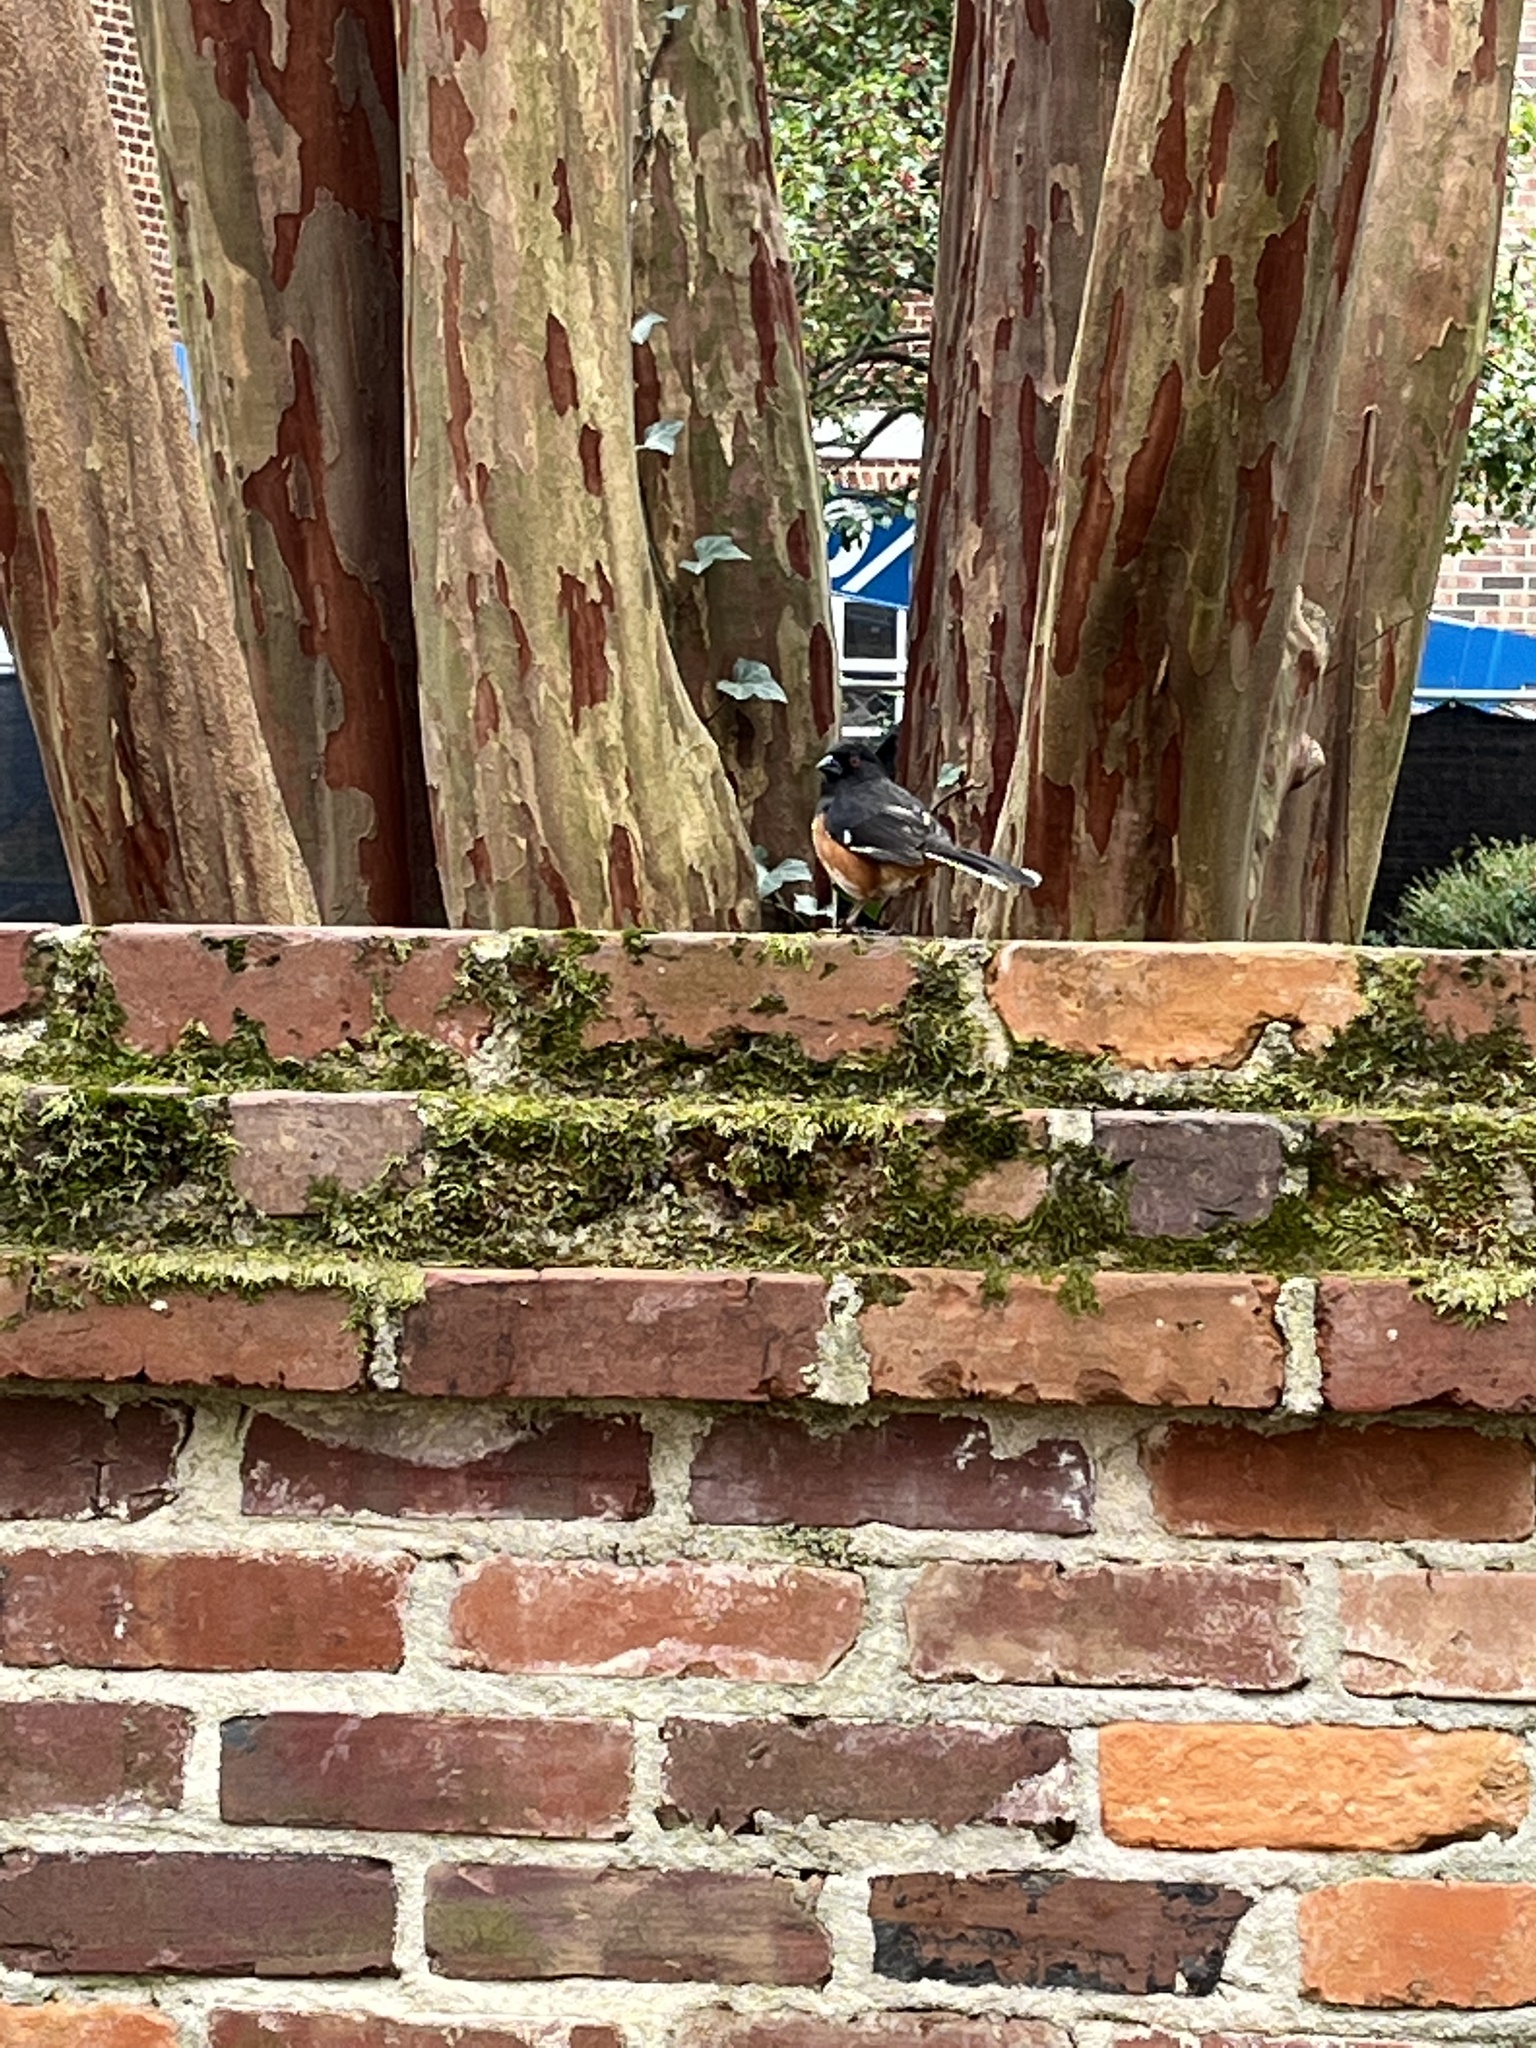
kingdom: Animalia
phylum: Chordata
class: Aves
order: Passeriformes
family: Passerellidae
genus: Pipilo
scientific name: Pipilo erythrophthalmus
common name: Eastern towhee
